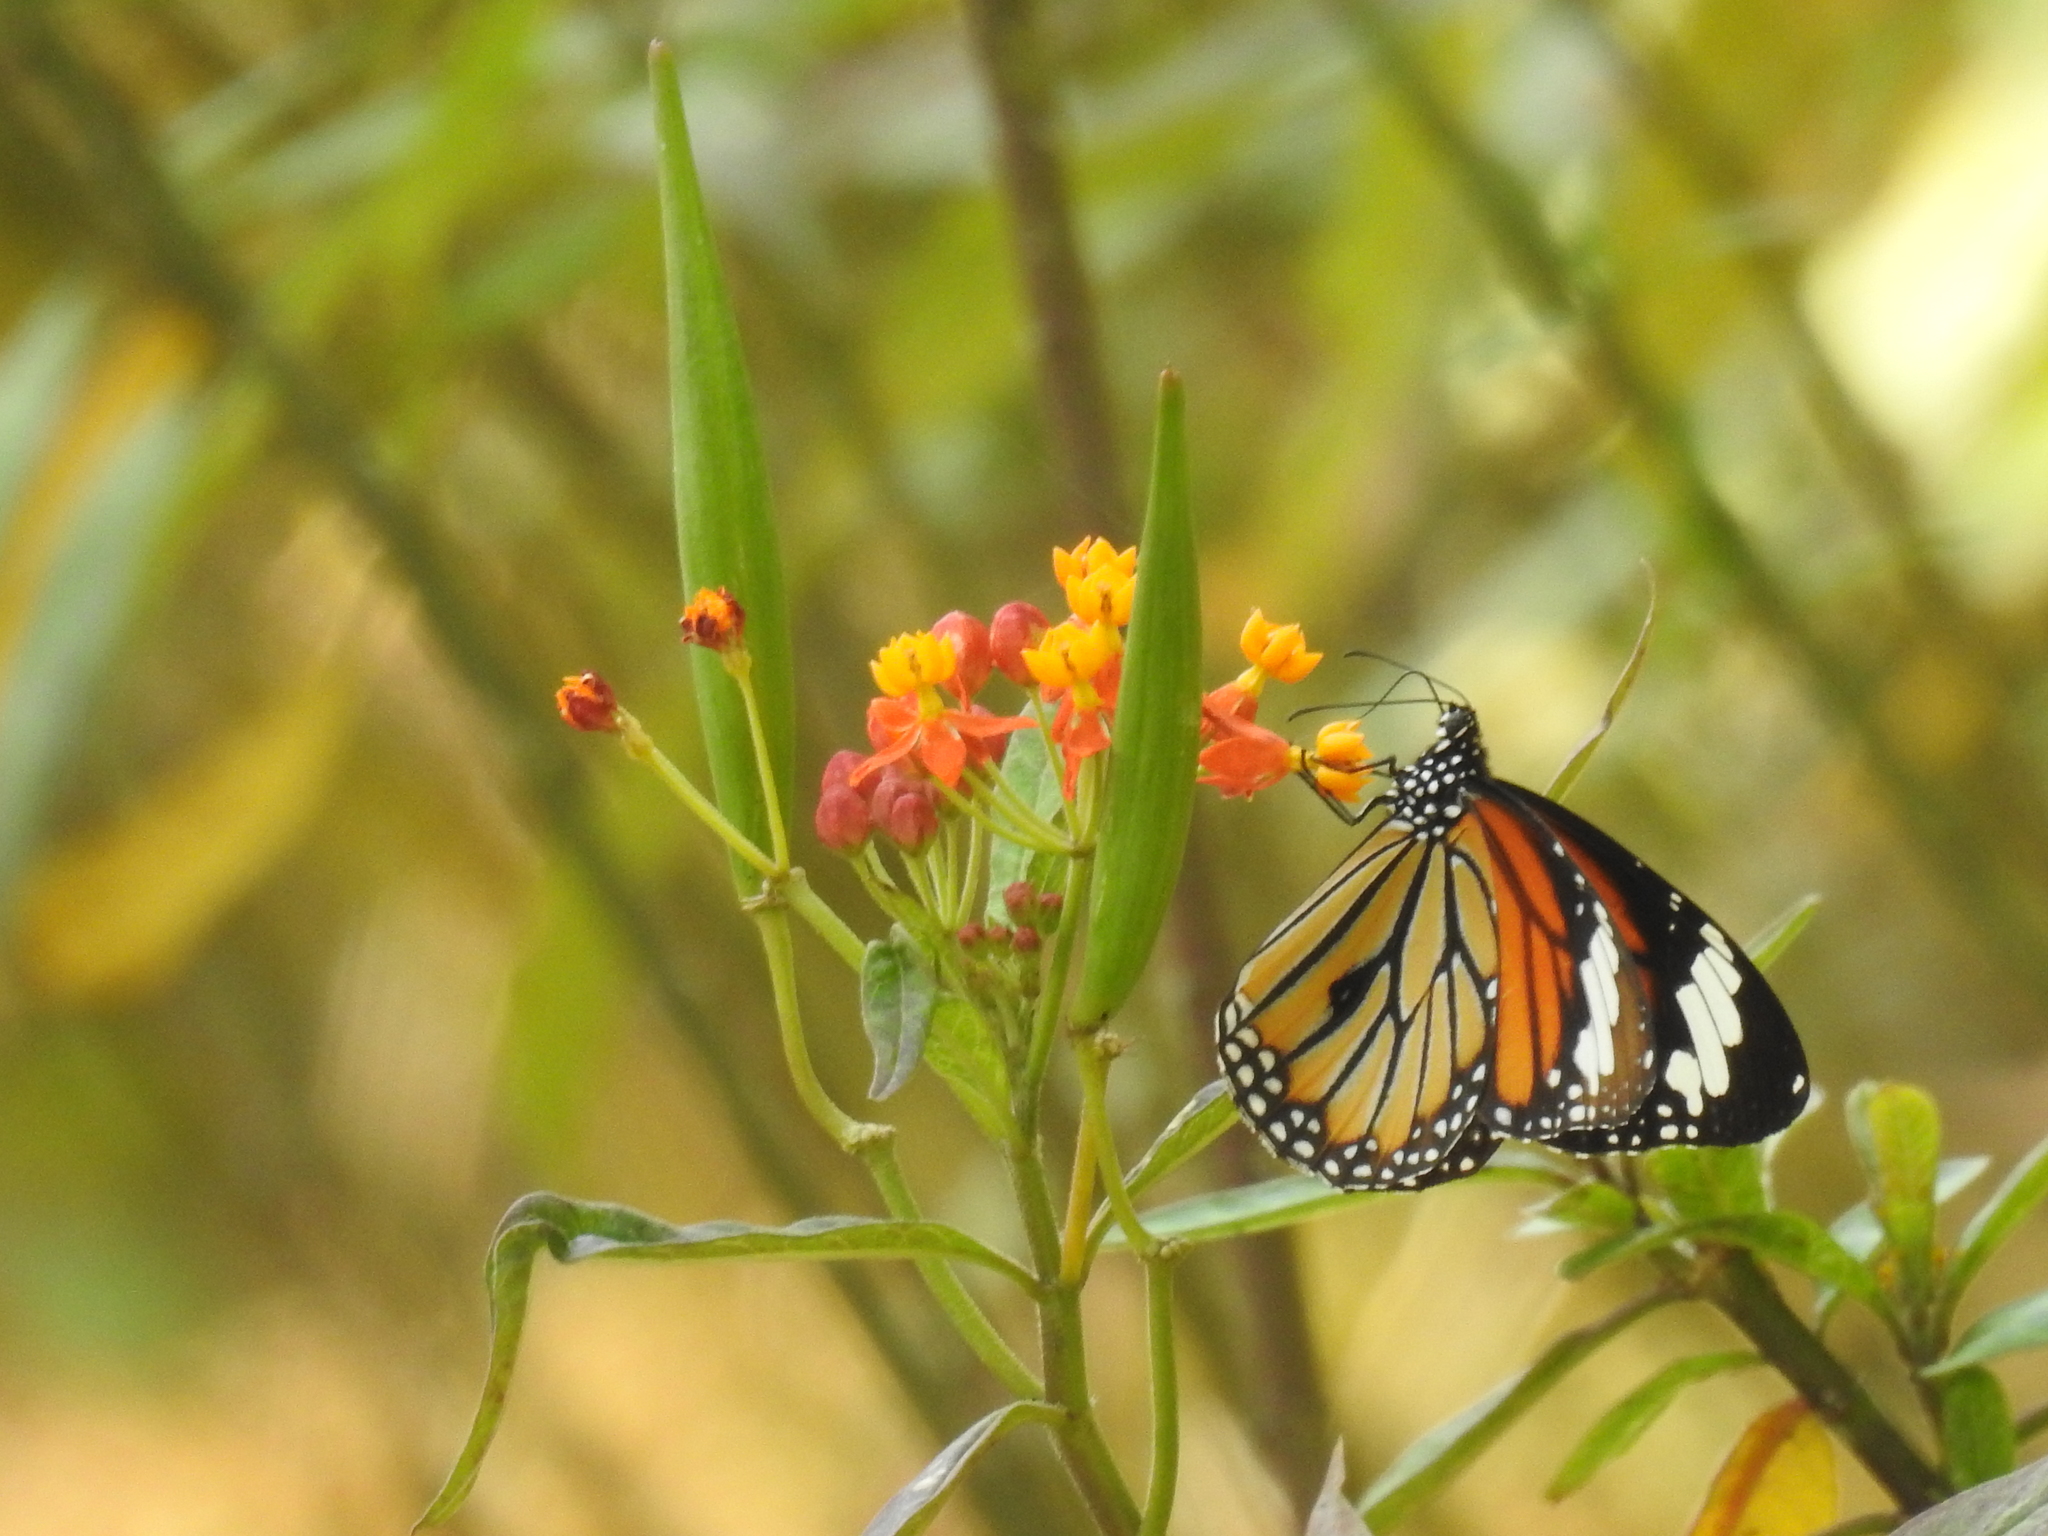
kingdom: Animalia
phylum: Arthropoda
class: Insecta
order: Lepidoptera
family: Nymphalidae
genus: Danaus
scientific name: Danaus genutia
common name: Common tiger butterfly
